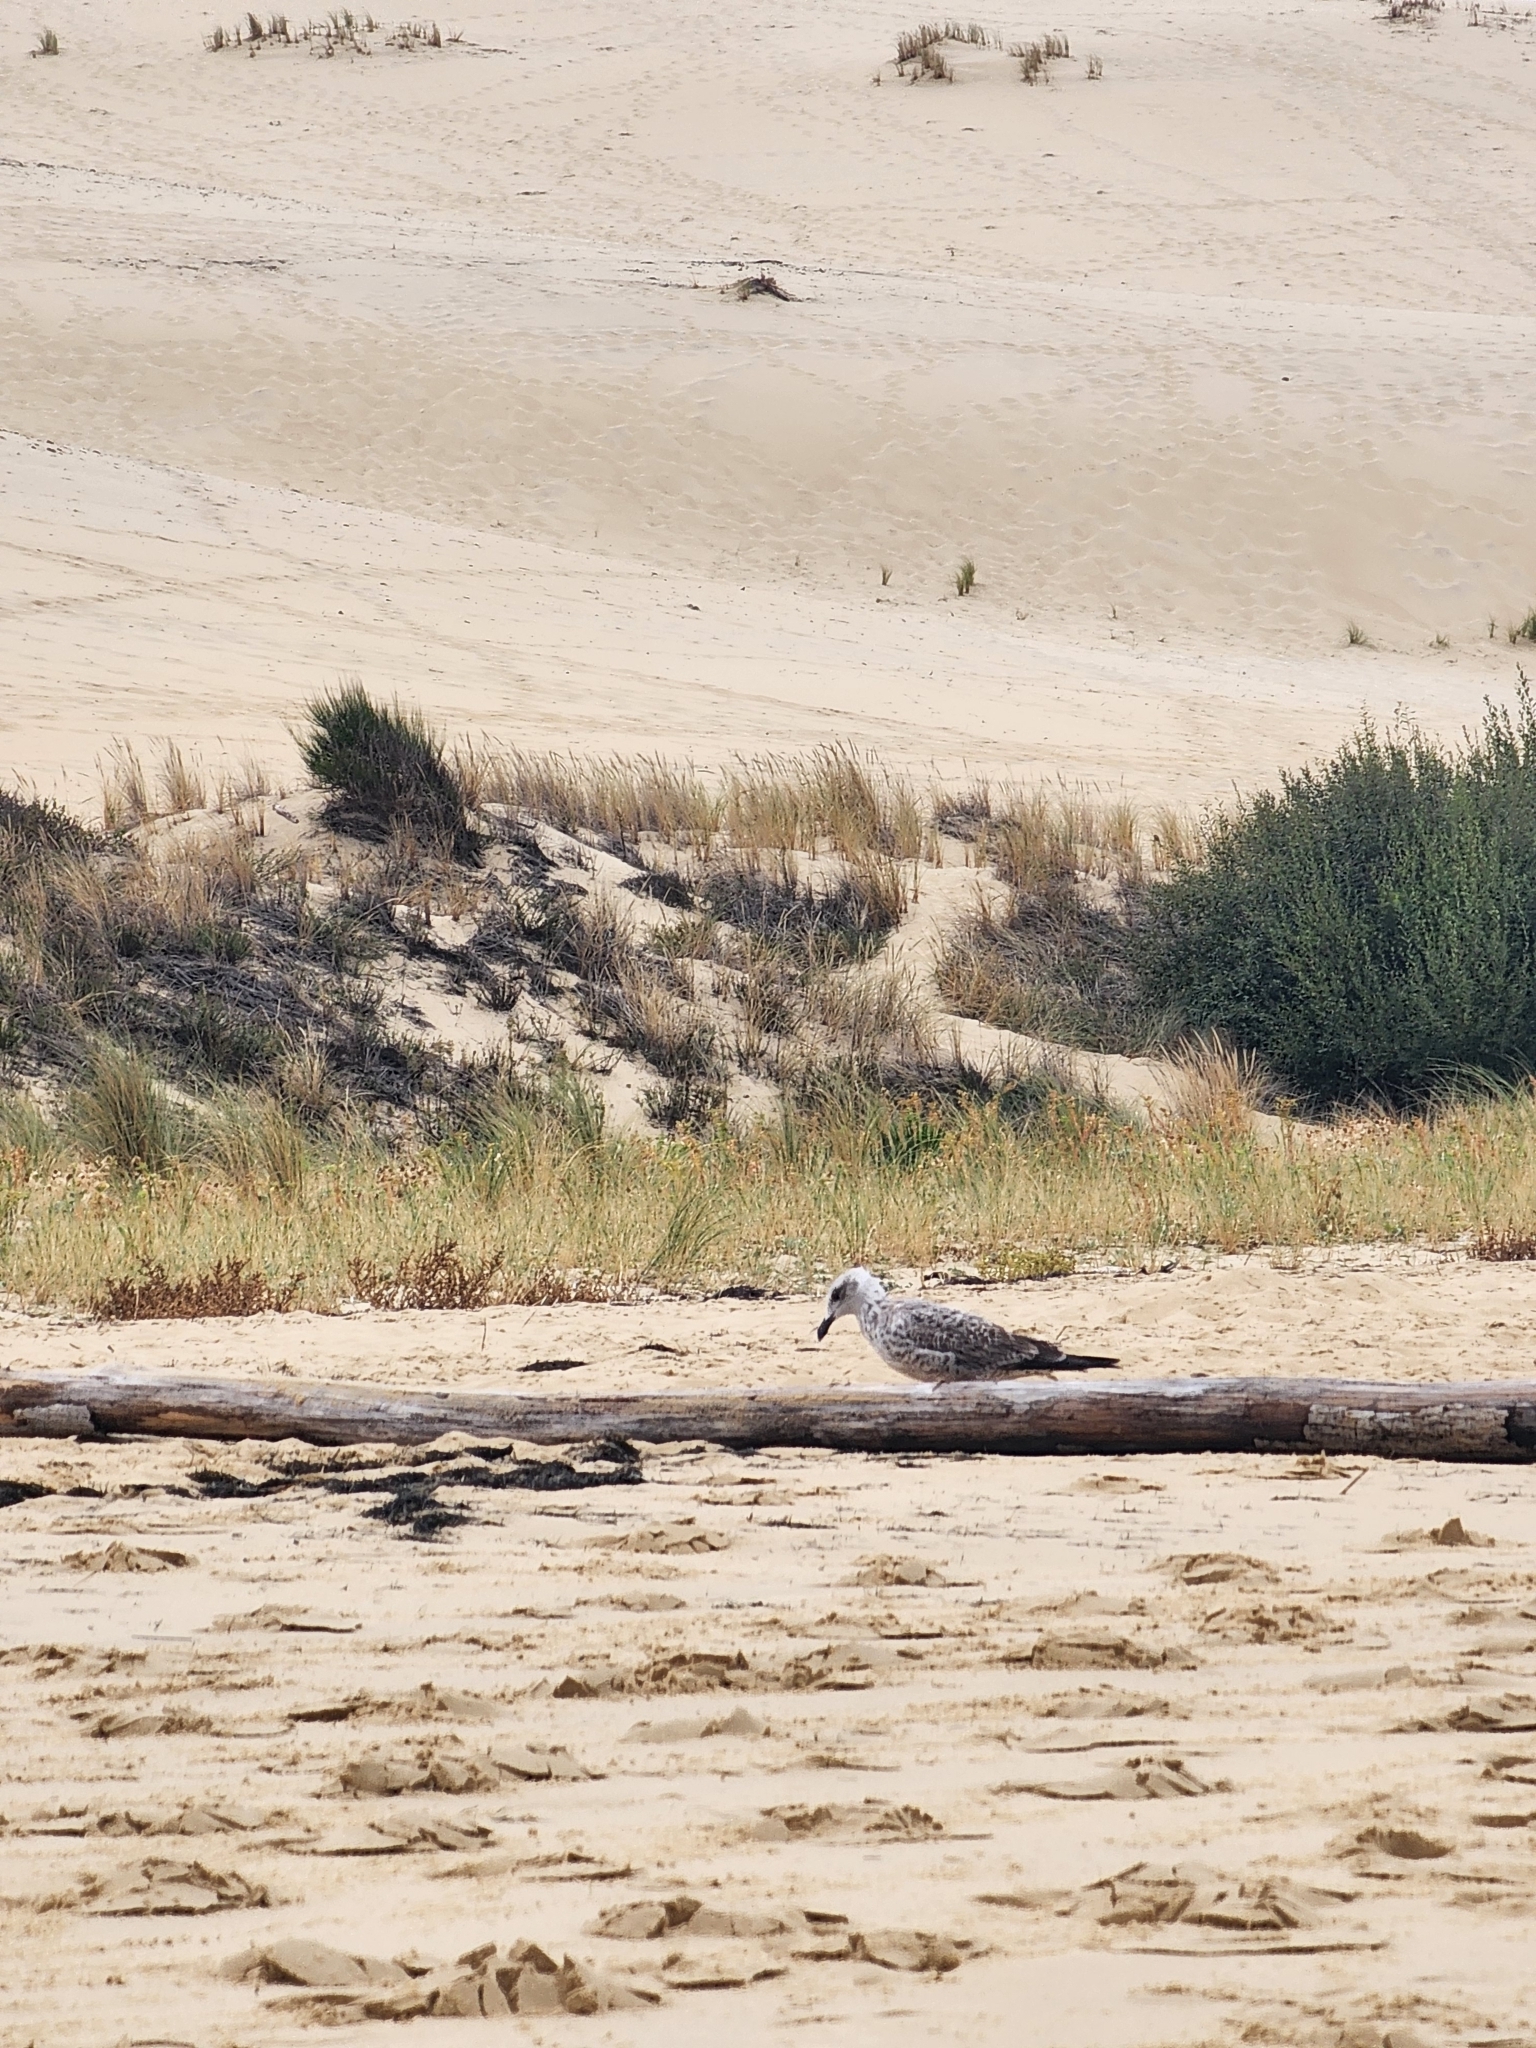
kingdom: Animalia
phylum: Chordata
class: Aves
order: Charadriiformes
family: Laridae
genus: Larus
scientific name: Larus argentatus
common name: Herring gull
